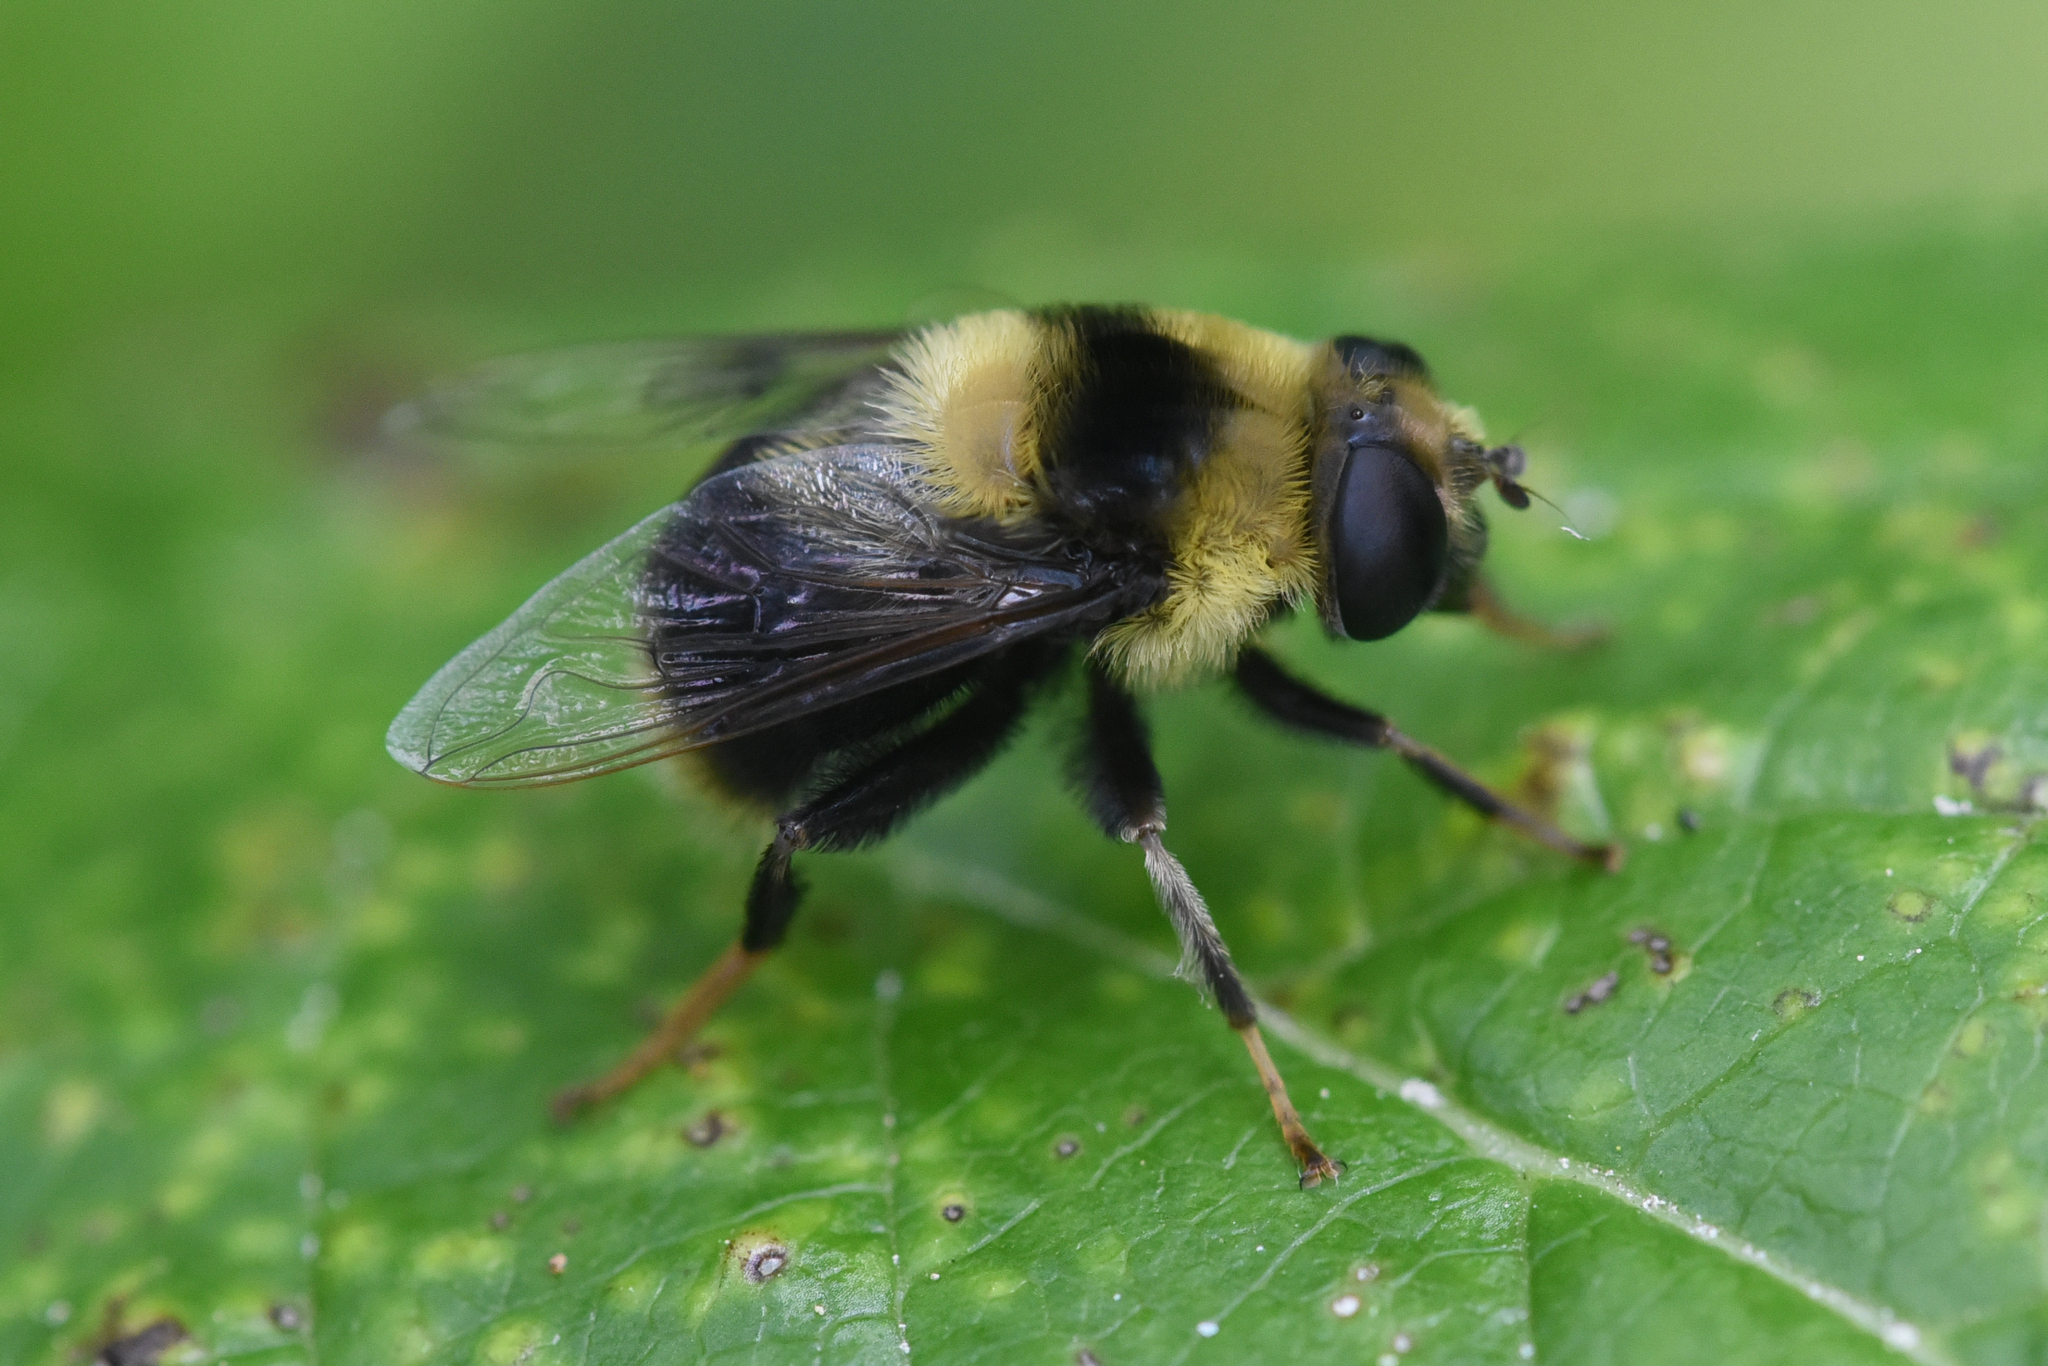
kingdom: Animalia
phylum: Arthropoda
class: Insecta
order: Diptera
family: Syrphidae
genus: Eristalis
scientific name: Eristalis flavipes
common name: Orange-legged drone fly
